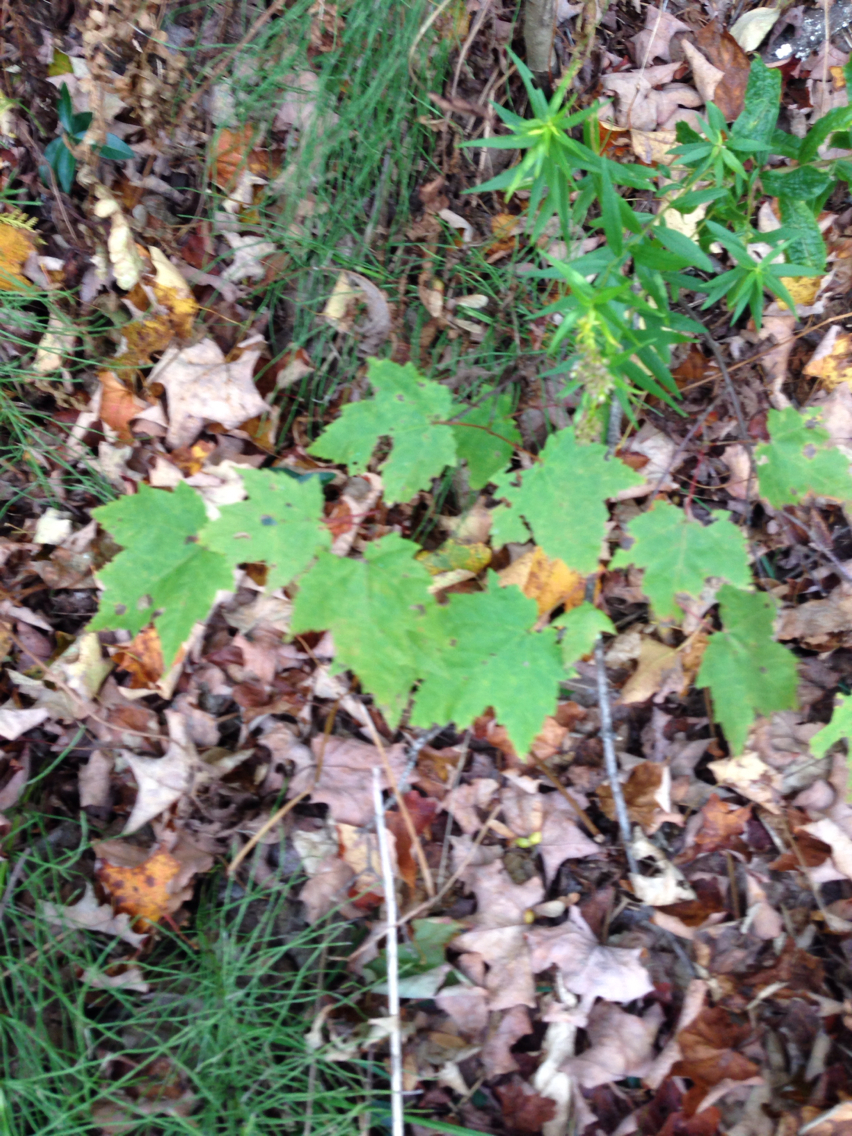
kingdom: Plantae
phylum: Tracheophyta
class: Magnoliopsida
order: Sapindales
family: Sapindaceae
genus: Acer
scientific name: Acer rubrum
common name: Red maple
